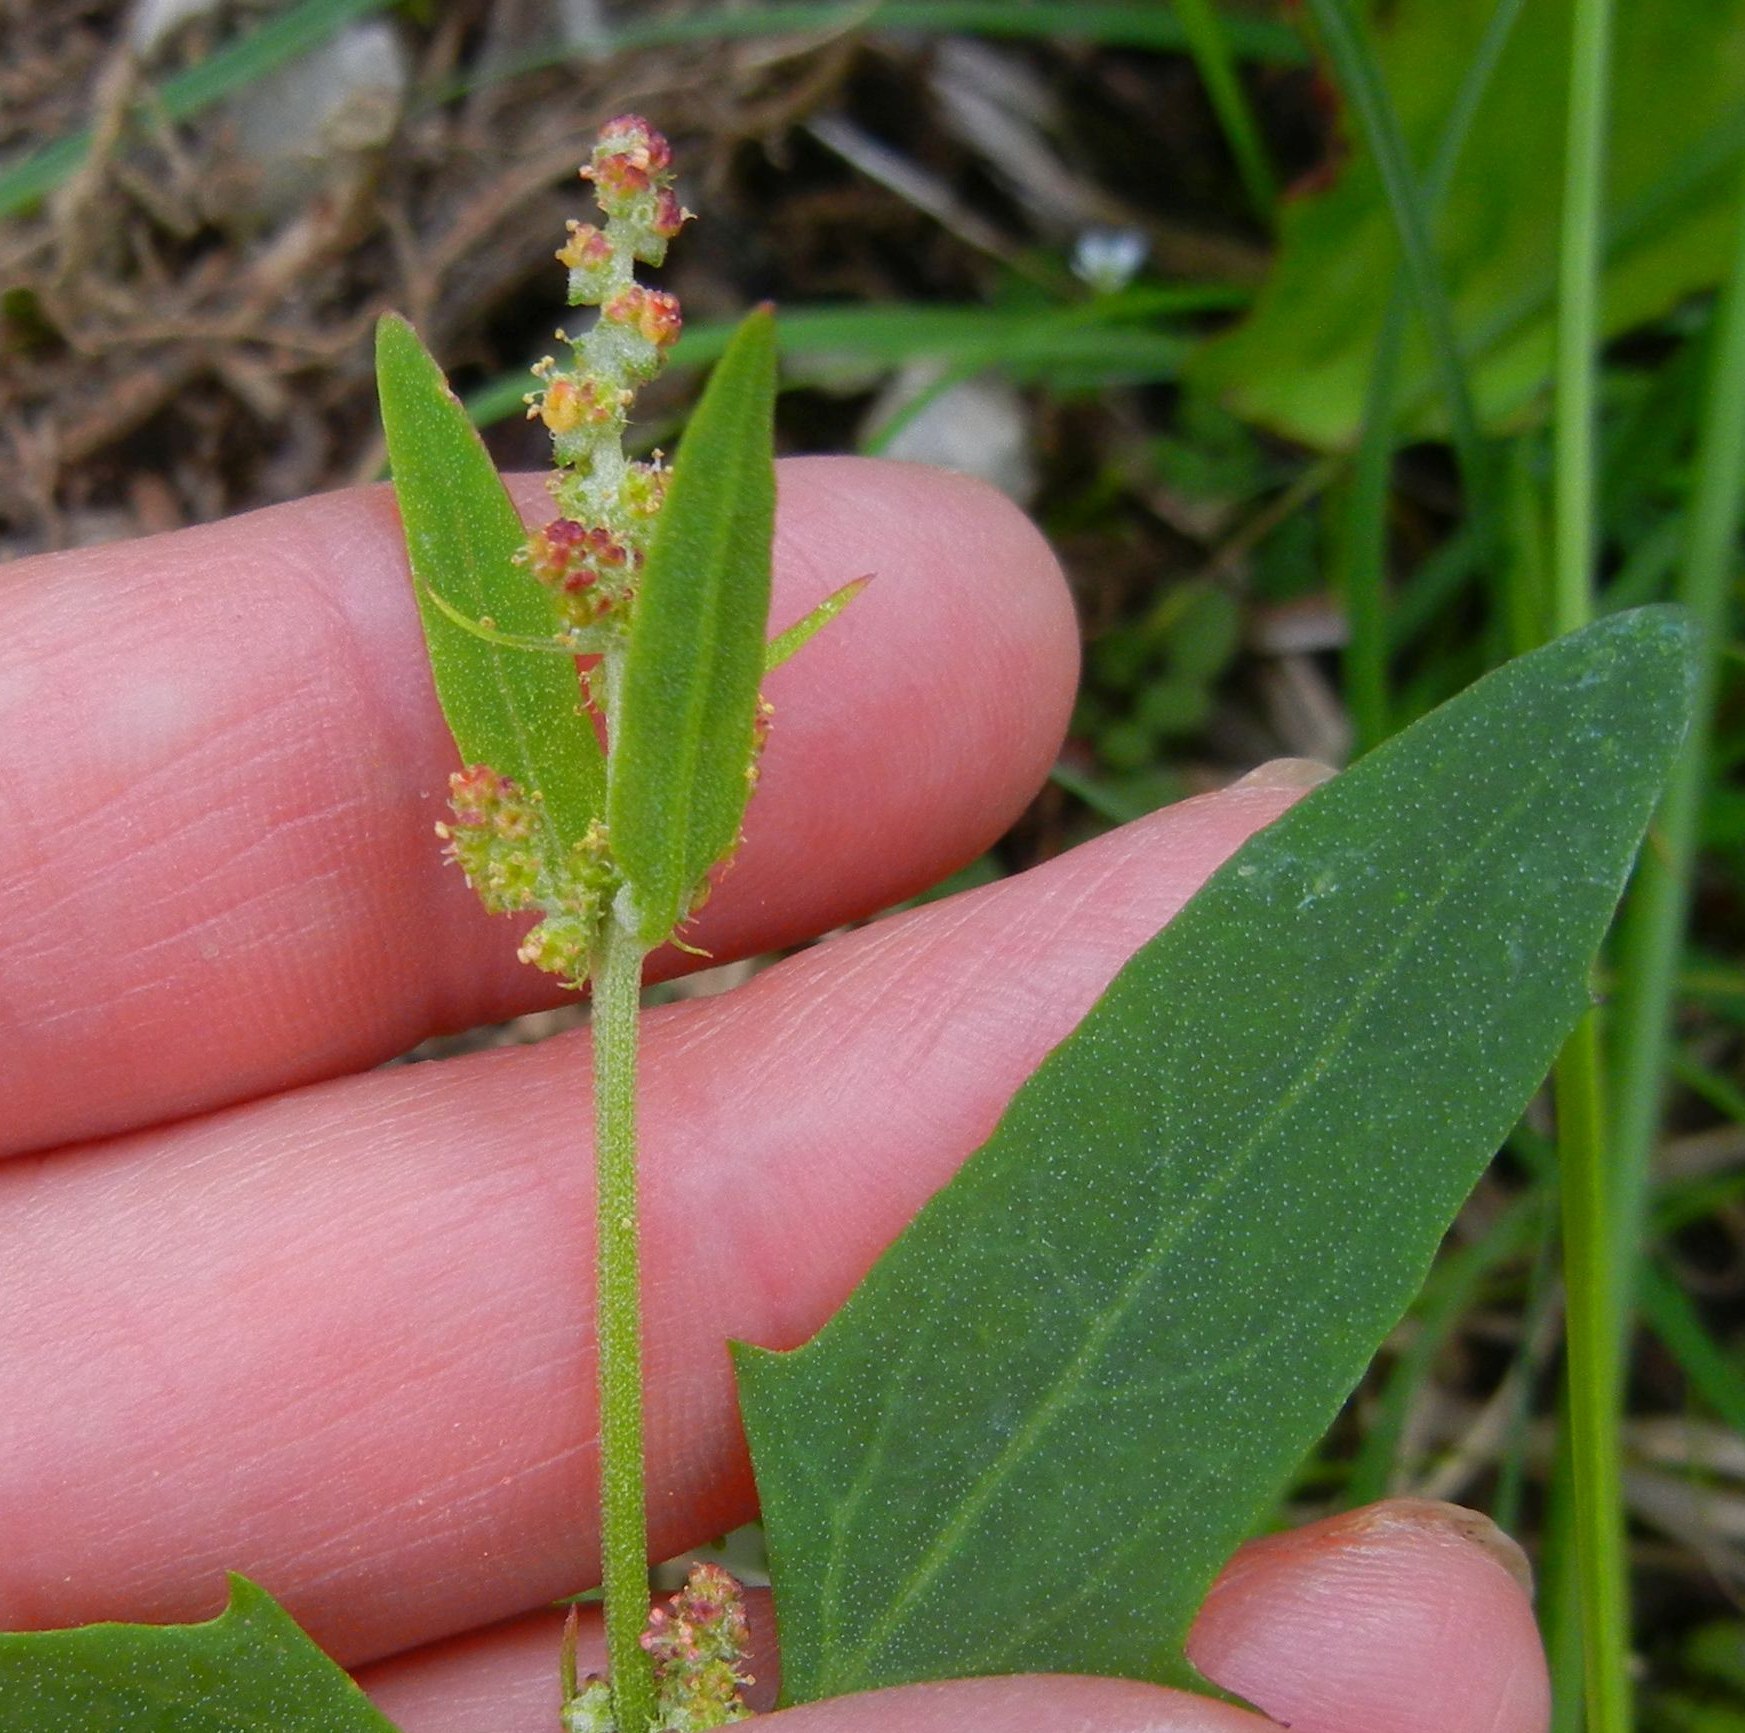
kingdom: Plantae
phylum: Tracheophyta
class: Magnoliopsida
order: Caryophyllales
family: Amaranthaceae
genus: Atriplex
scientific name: Atriplex patula
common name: Common orache
